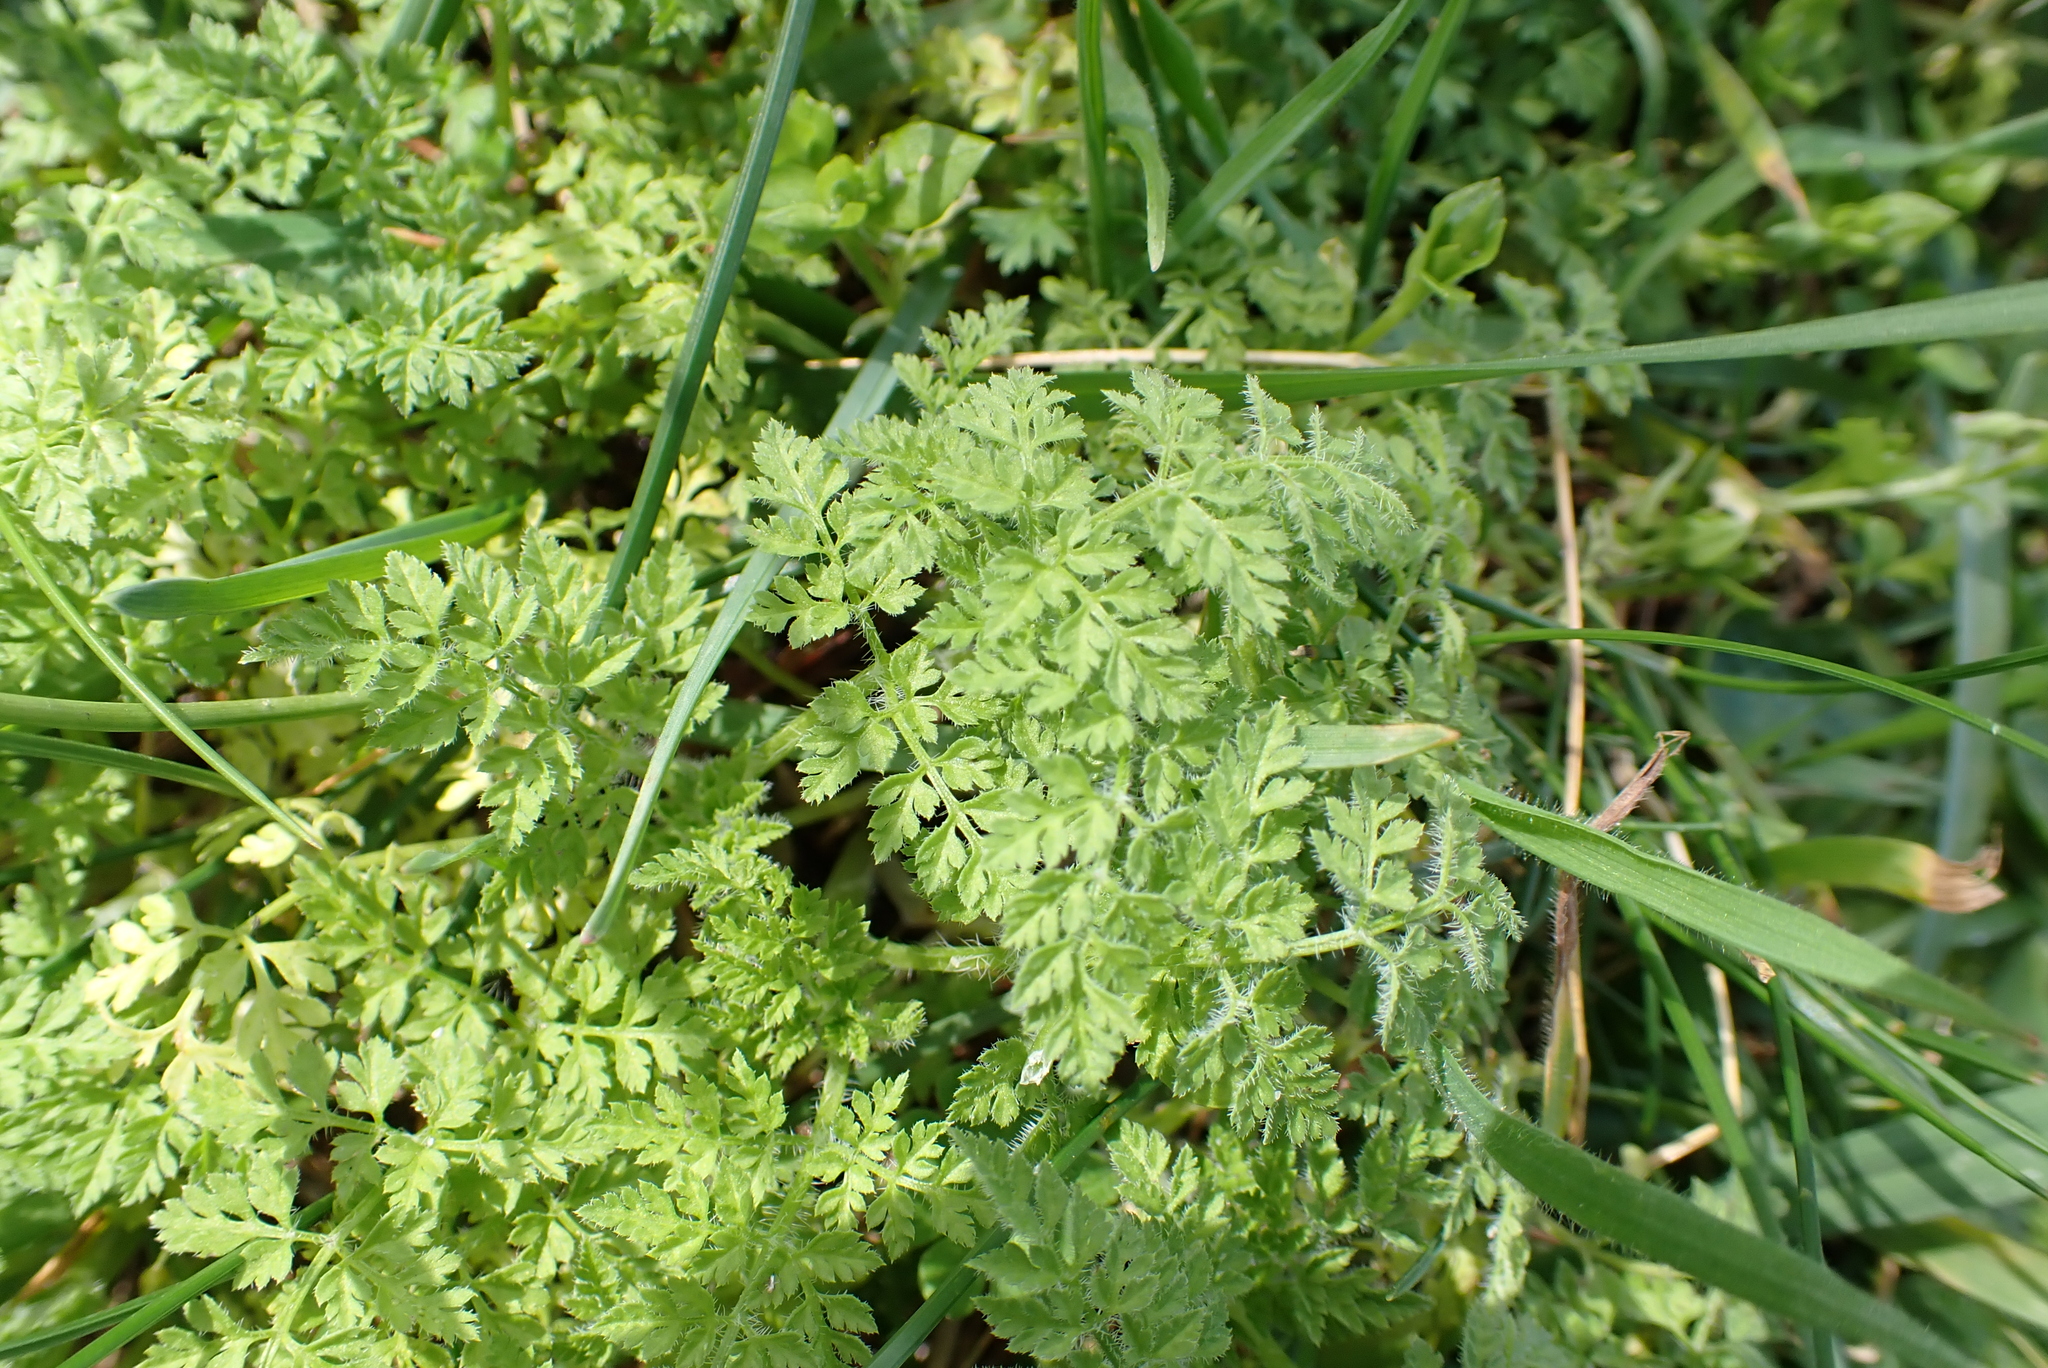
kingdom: Plantae
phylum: Tracheophyta
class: Magnoliopsida
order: Apiales
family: Apiaceae
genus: Anthriscus
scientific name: Anthriscus caucalis
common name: Bur chervil
